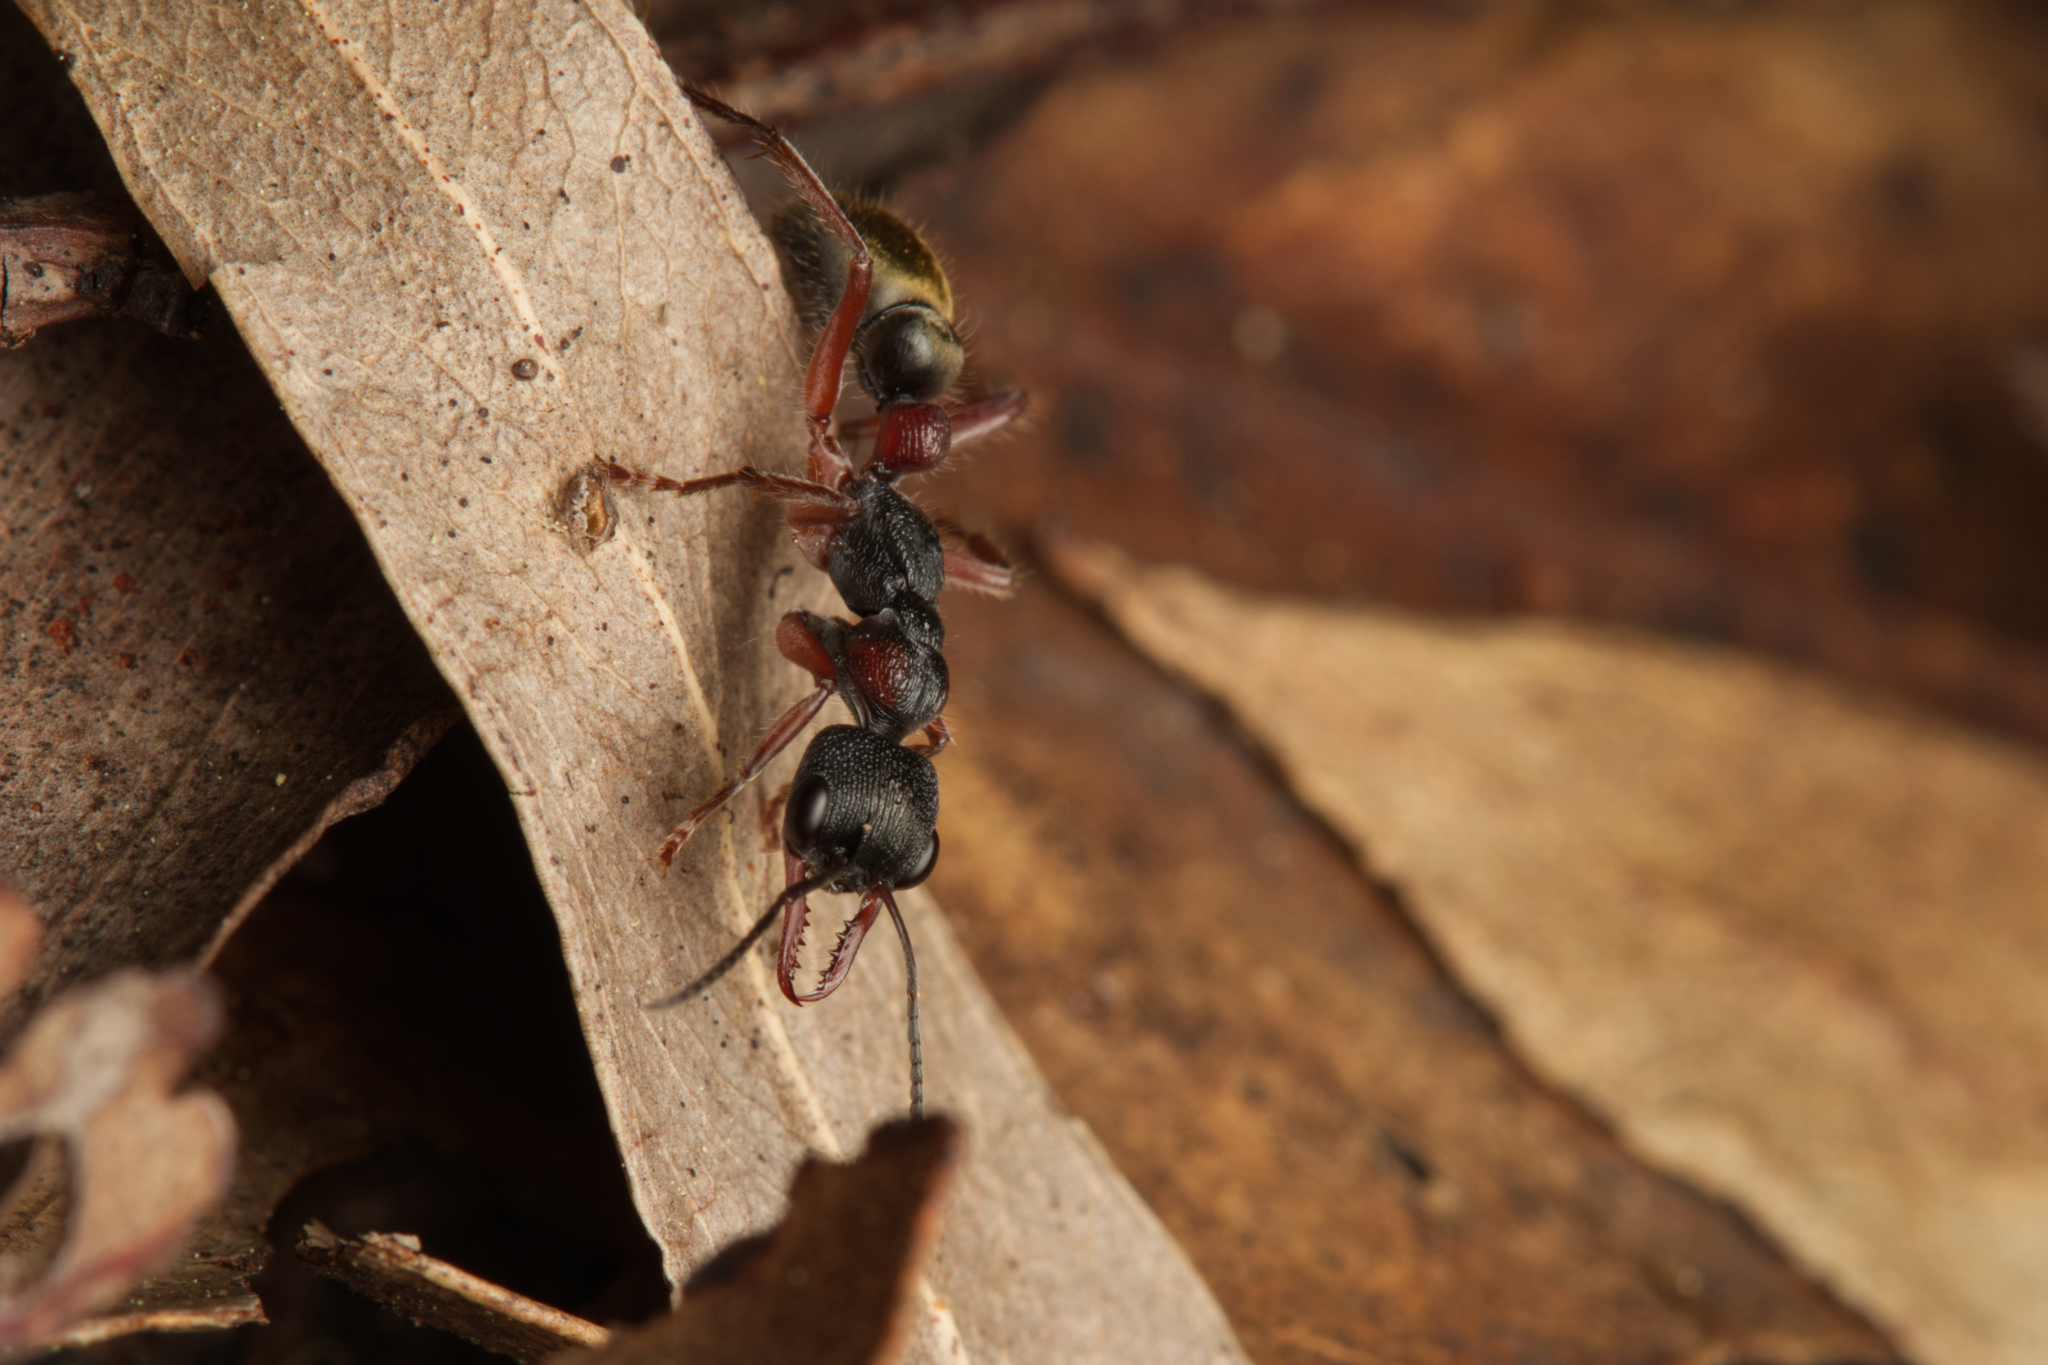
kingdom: Animalia
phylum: Arthropoda
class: Insecta
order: Hymenoptera
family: Formicidae
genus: Myrmecia
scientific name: Myrmecia chrysogaster
